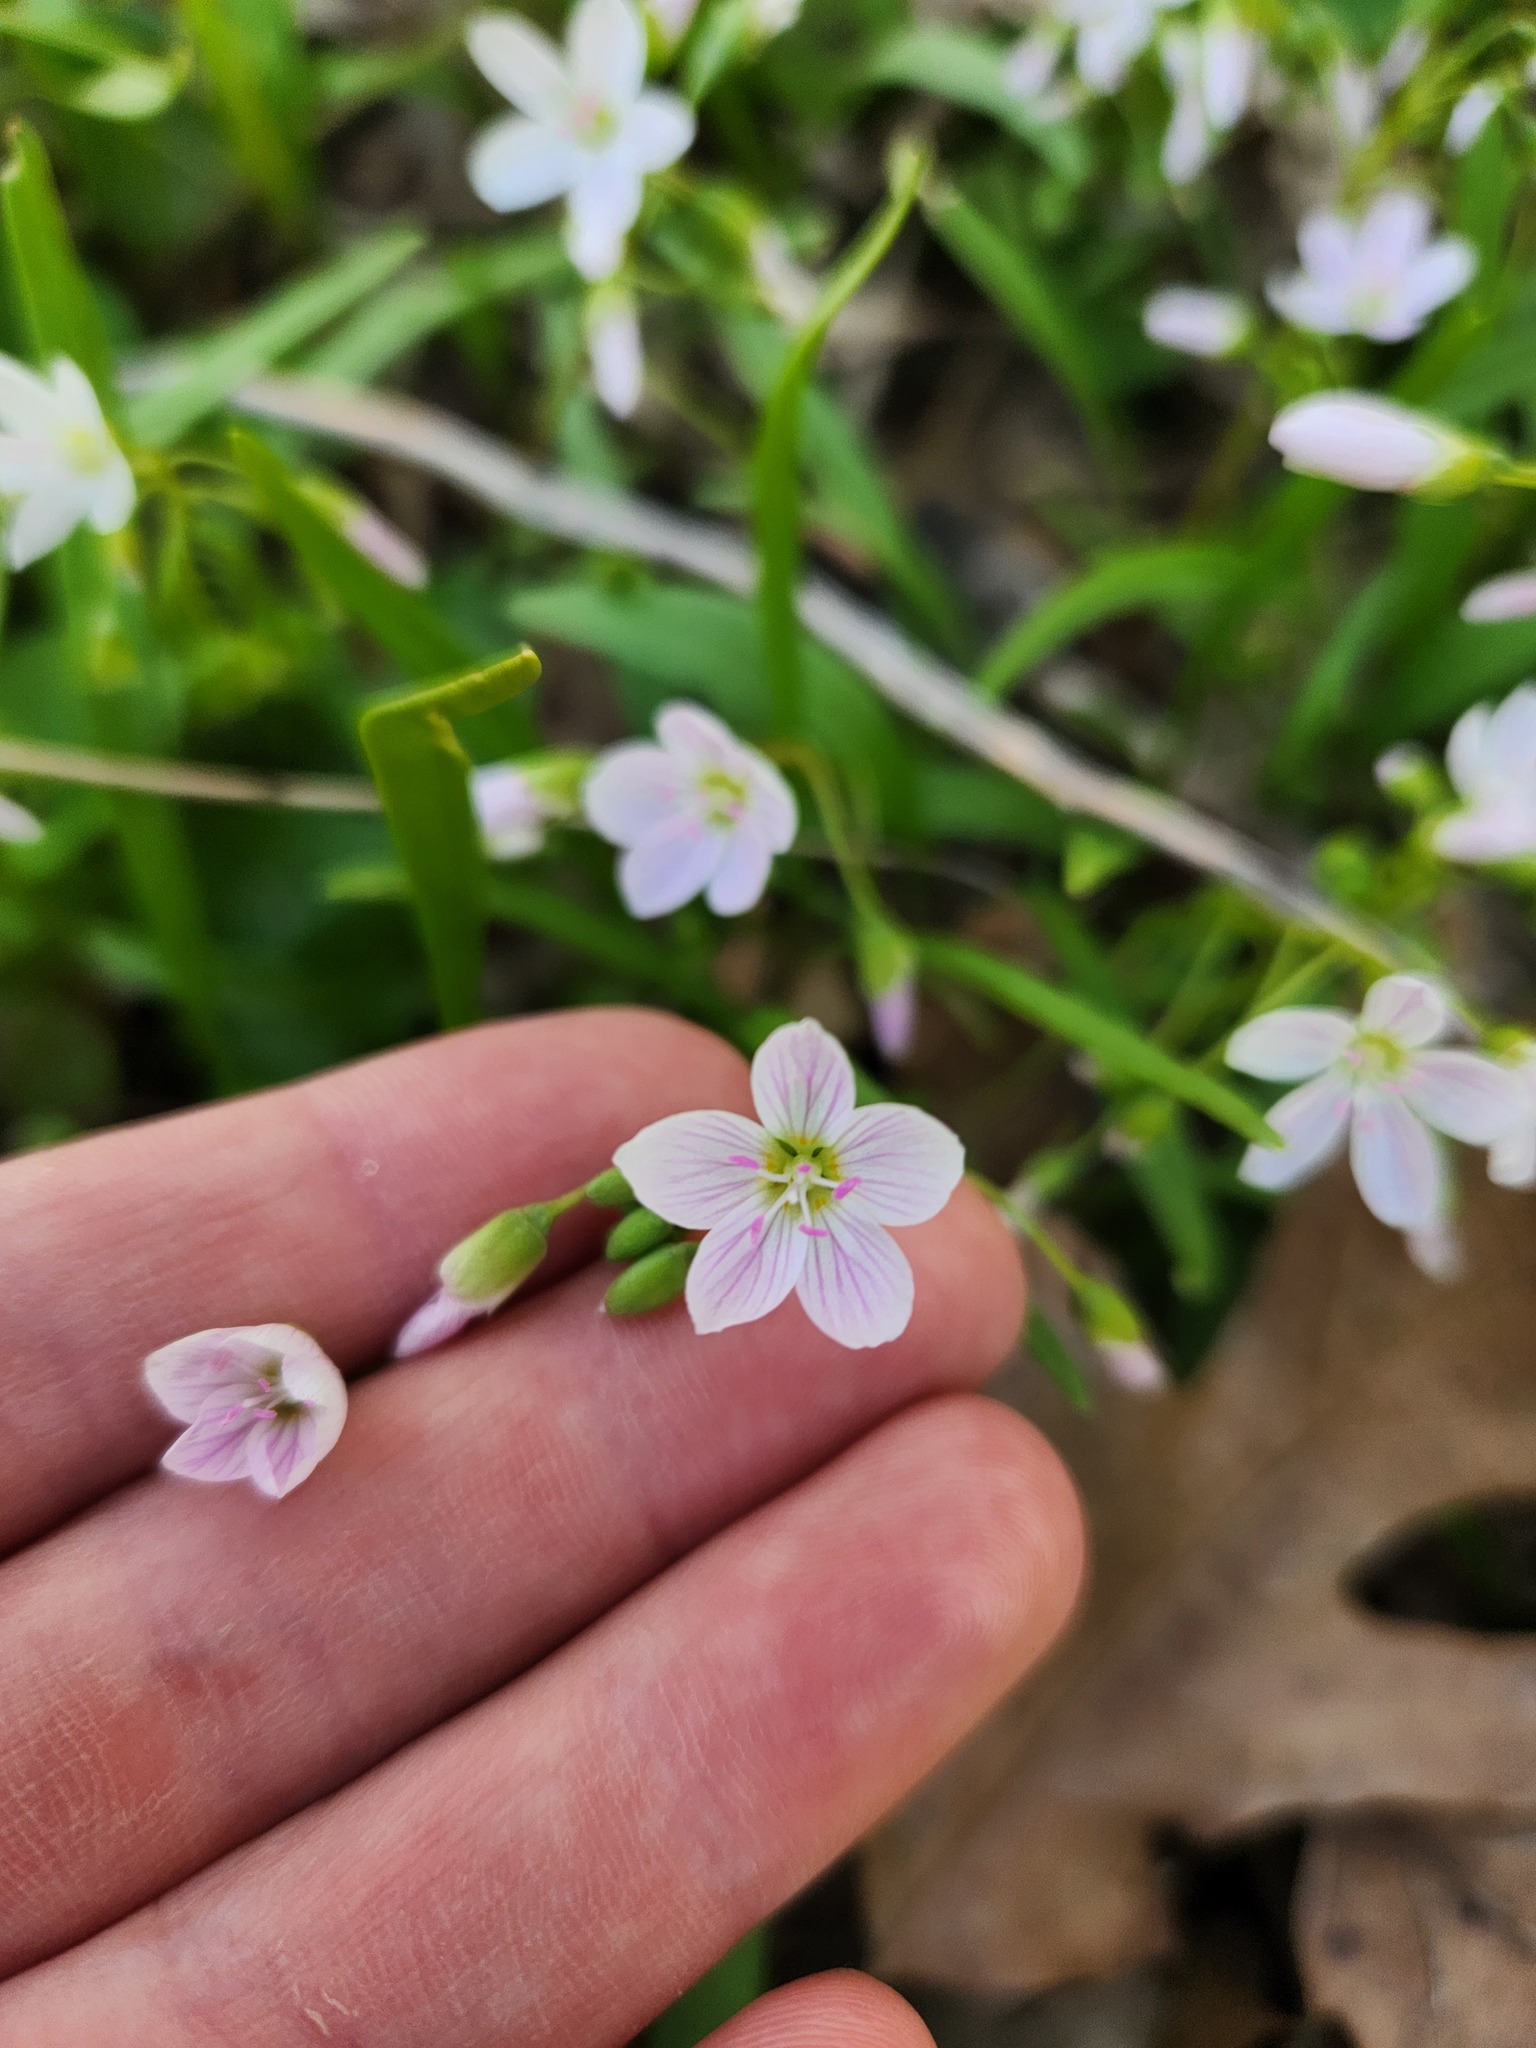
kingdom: Plantae
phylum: Tracheophyta
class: Magnoliopsida
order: Caryophyllales
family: Montiaceae
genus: Claytonia
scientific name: Claytonia virginica
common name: Virginia springbeauty
